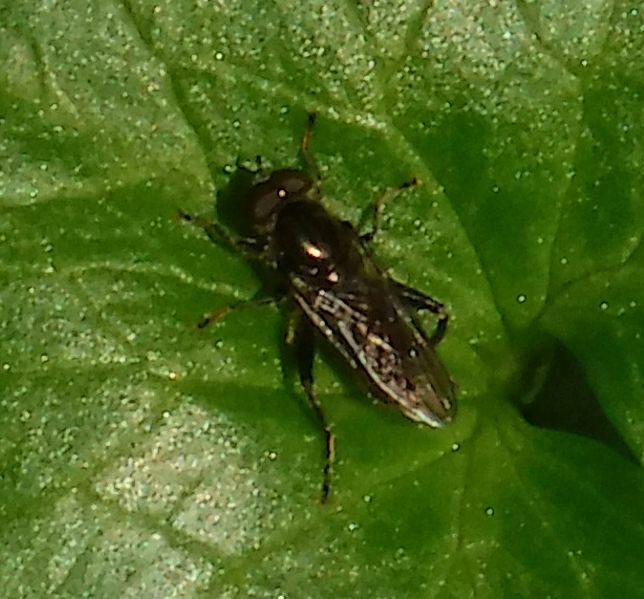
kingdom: Animalia
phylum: Arthropoda
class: Insecta
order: Diptera
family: Syrphidae
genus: Chalcosyrphus
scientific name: Chalcosyrphus nemorum
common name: Dusky-banded forest fly
